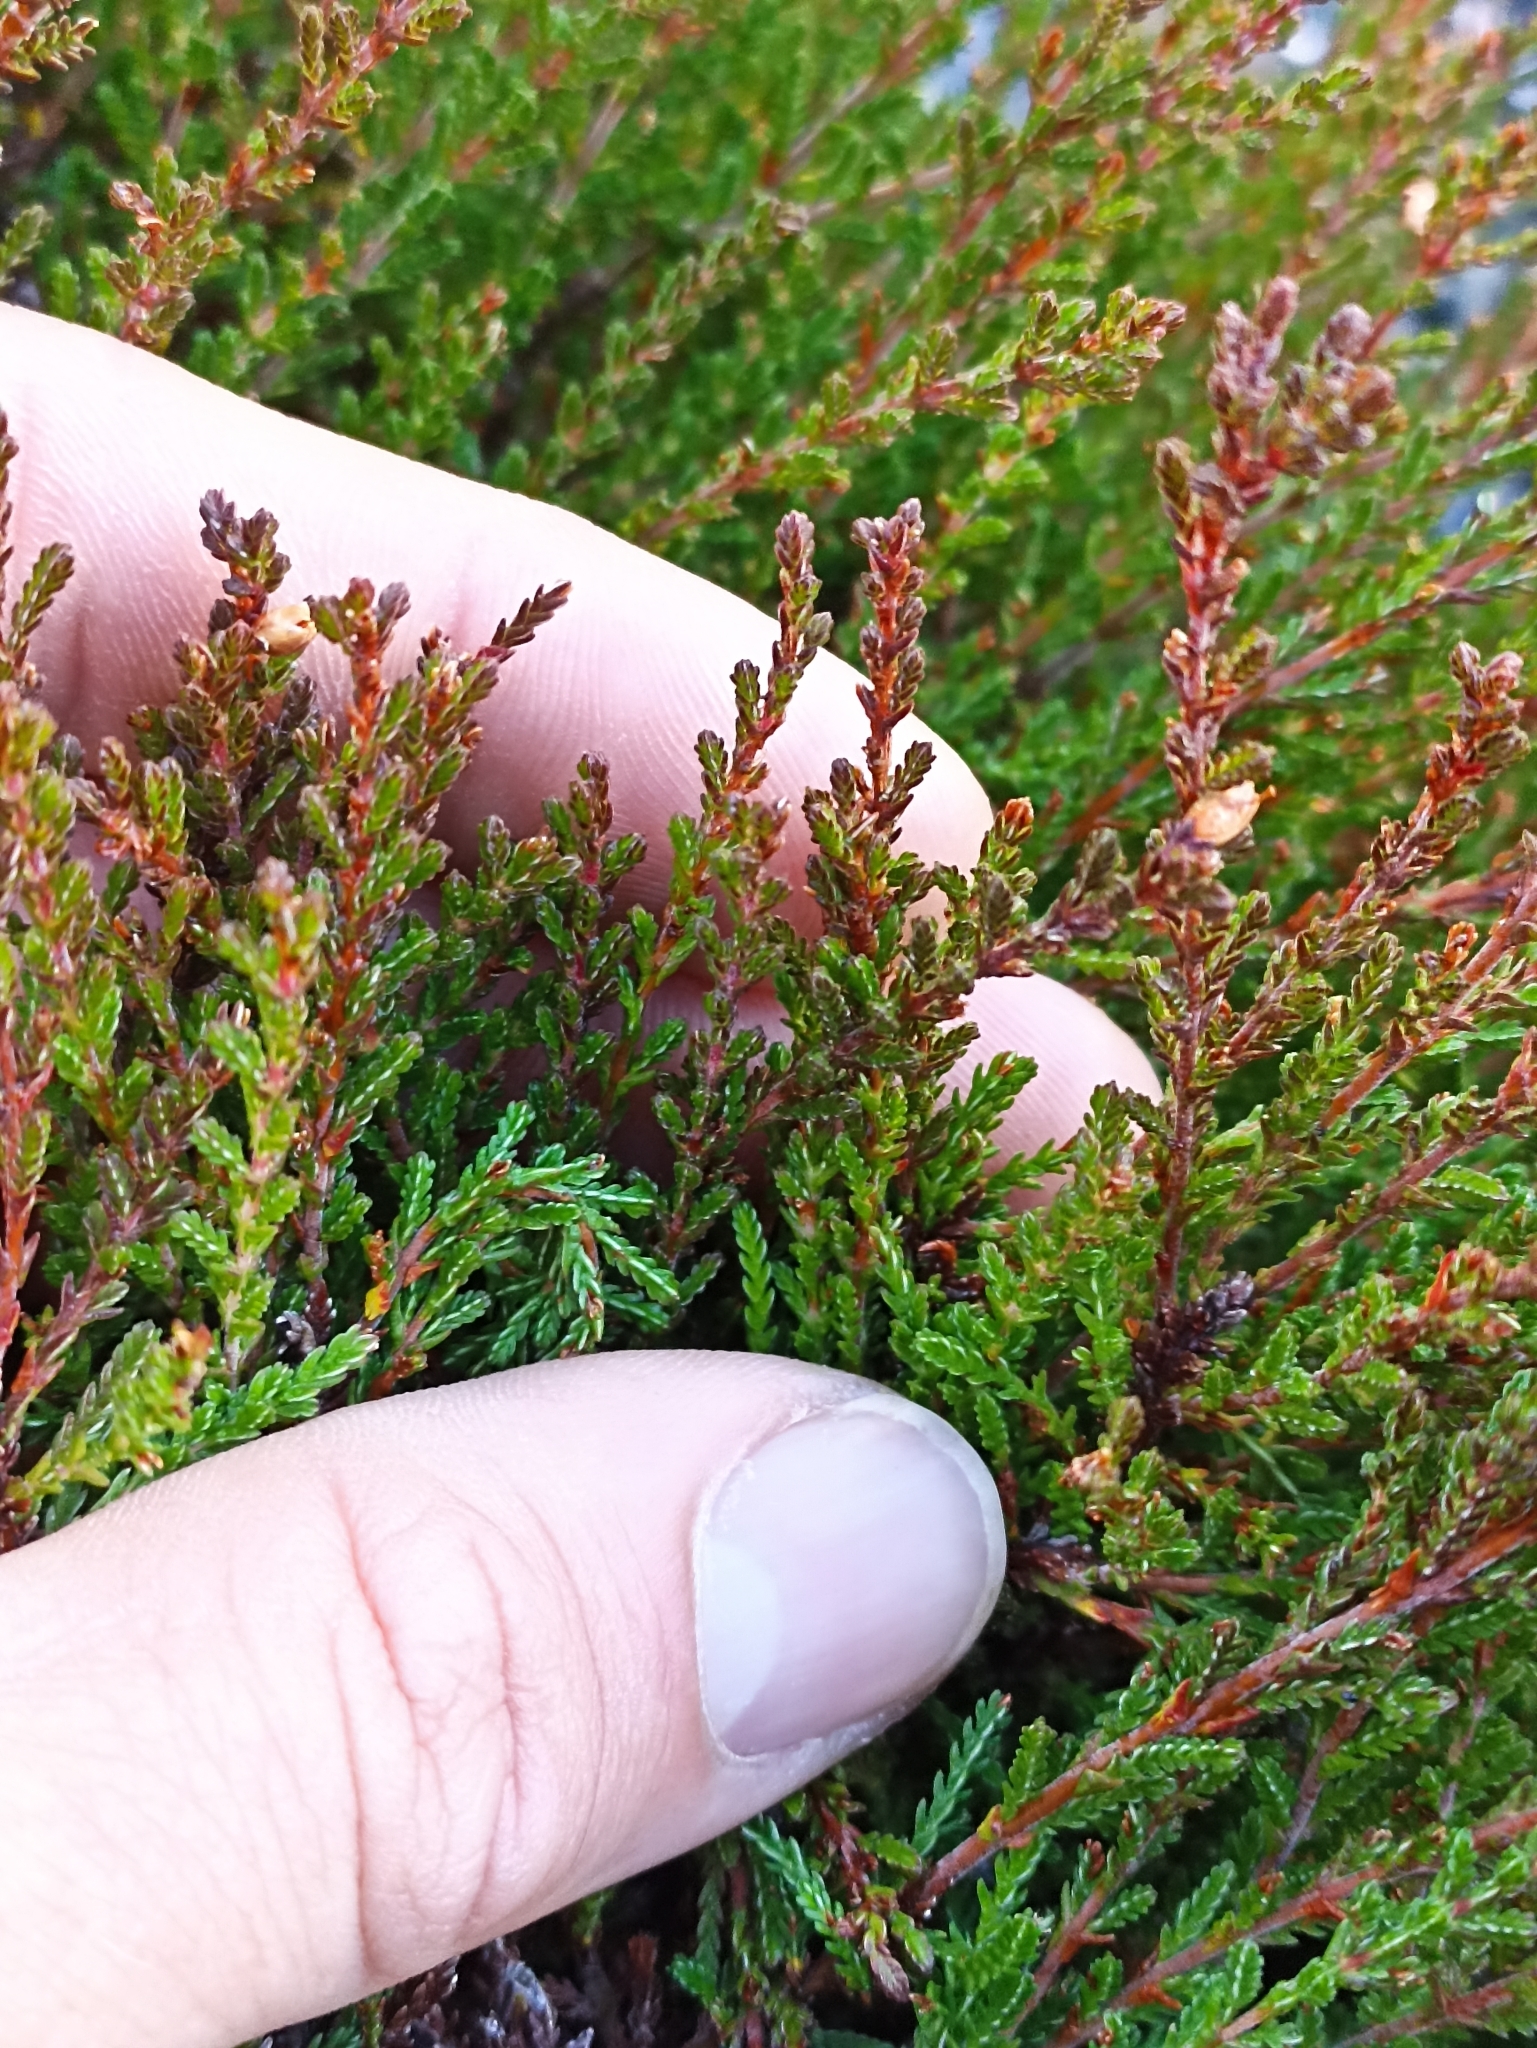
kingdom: Plantae
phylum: Tracheophyta
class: Magnoliopsida
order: Ericales
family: Ericaceae
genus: Calluna
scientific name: Calluna vulgaris
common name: Heather
